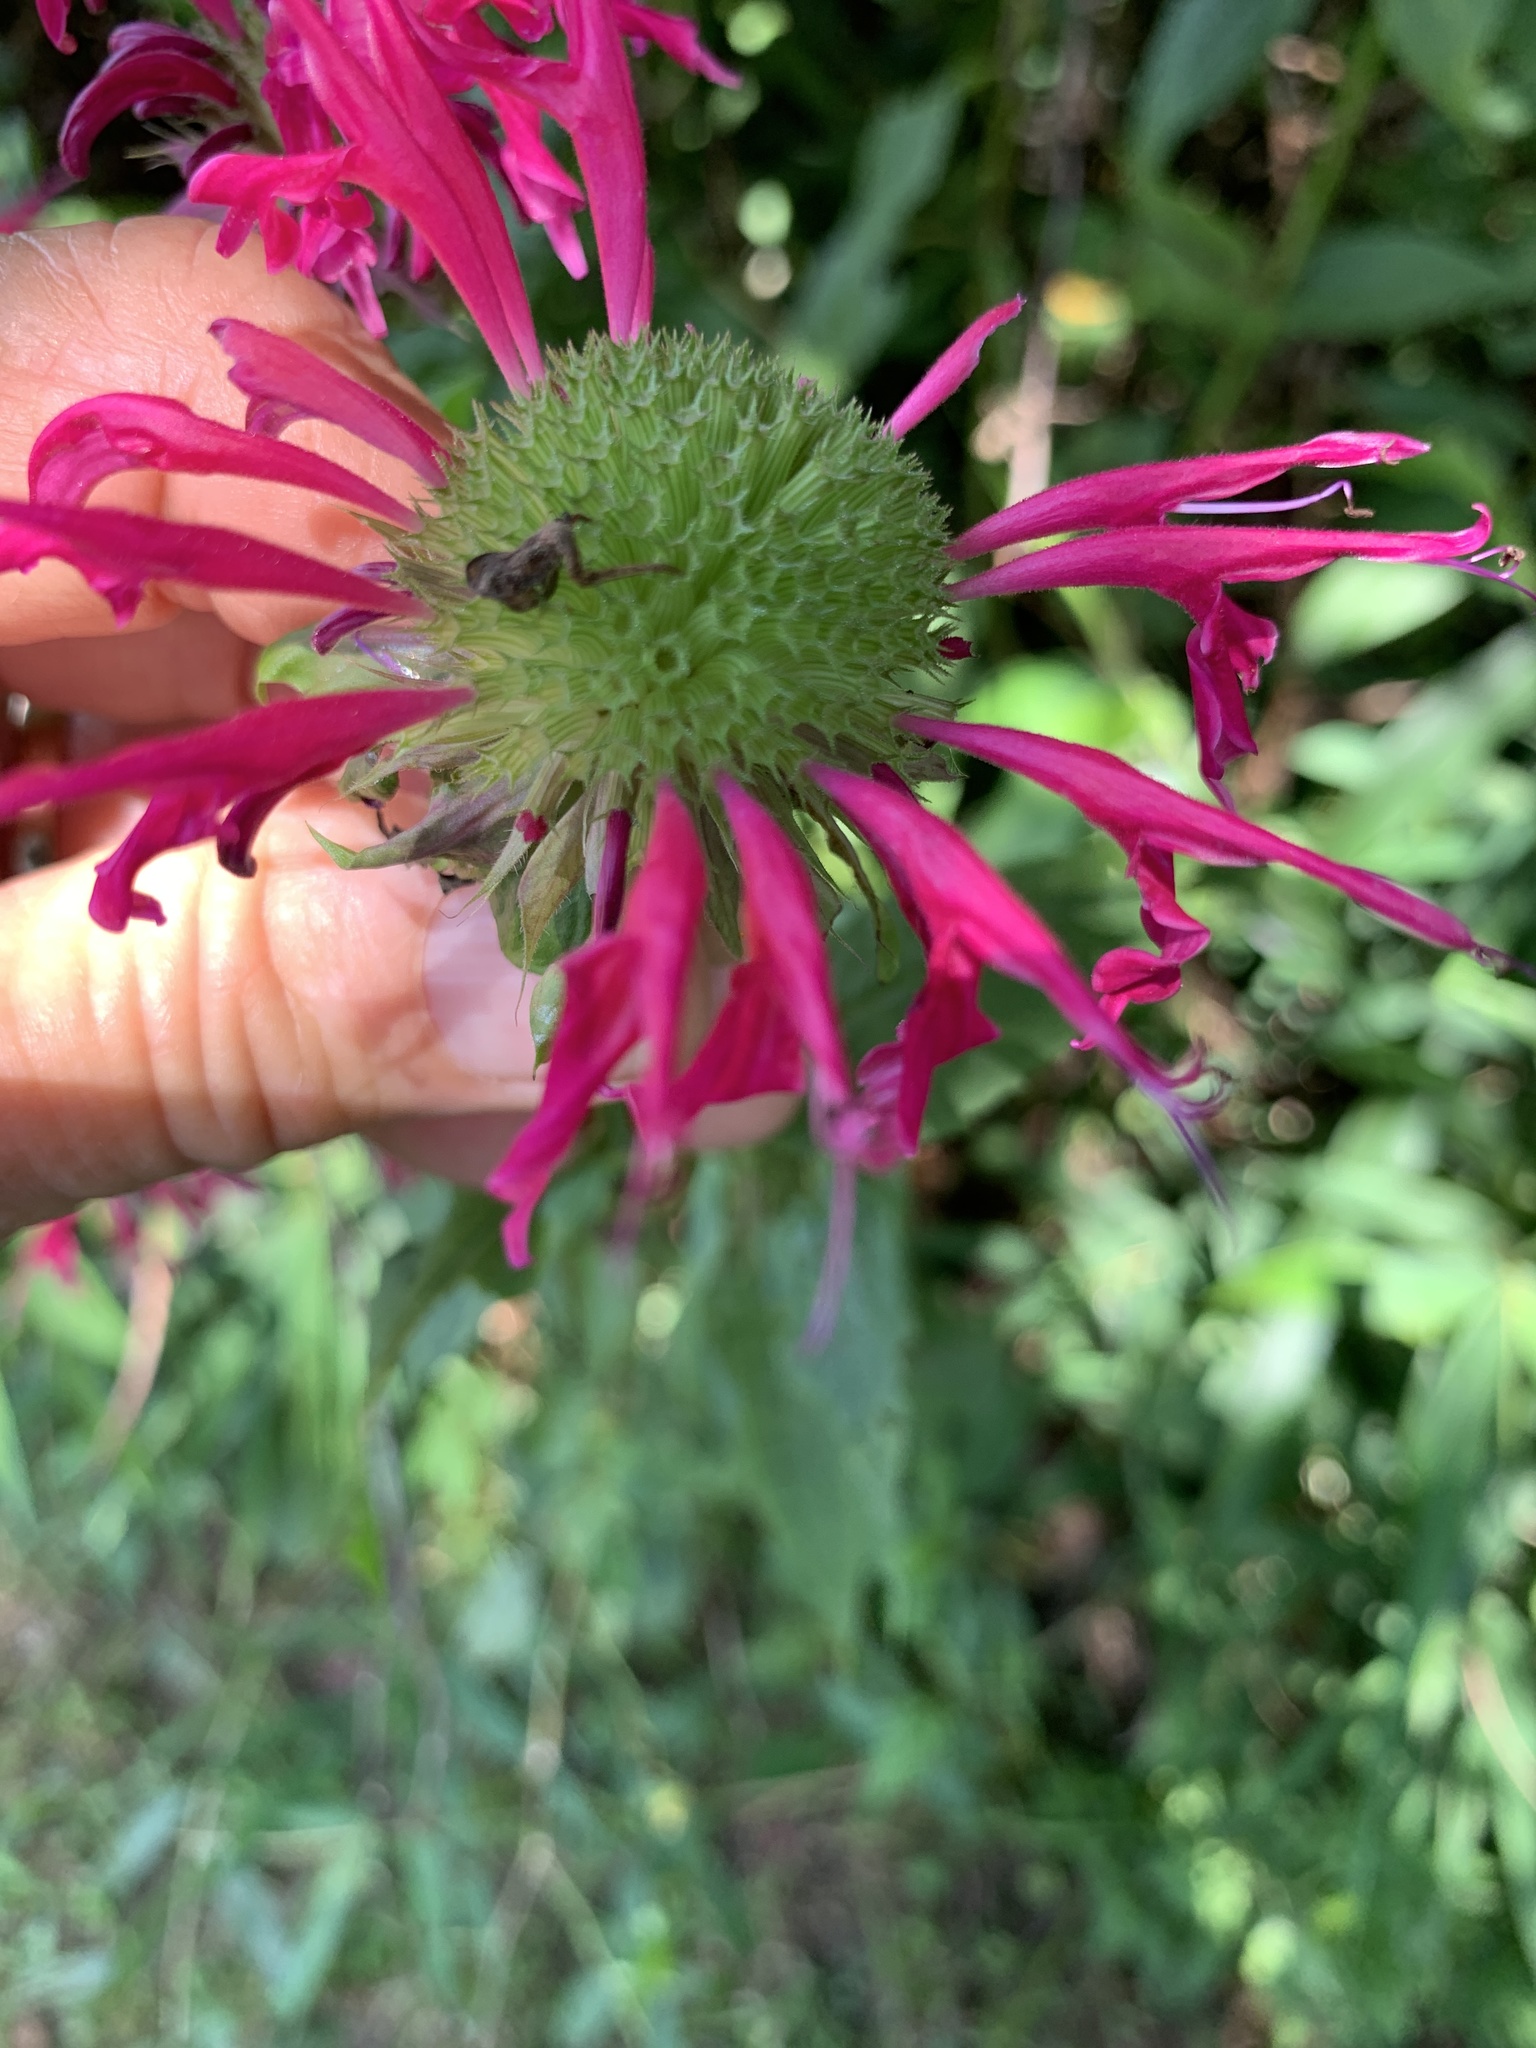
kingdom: Plantae
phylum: Tracheophyta
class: Magnoliopsida
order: Lamiales
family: Lamiaceae
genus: Monarda
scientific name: Monarda didyma
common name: Beebalm
